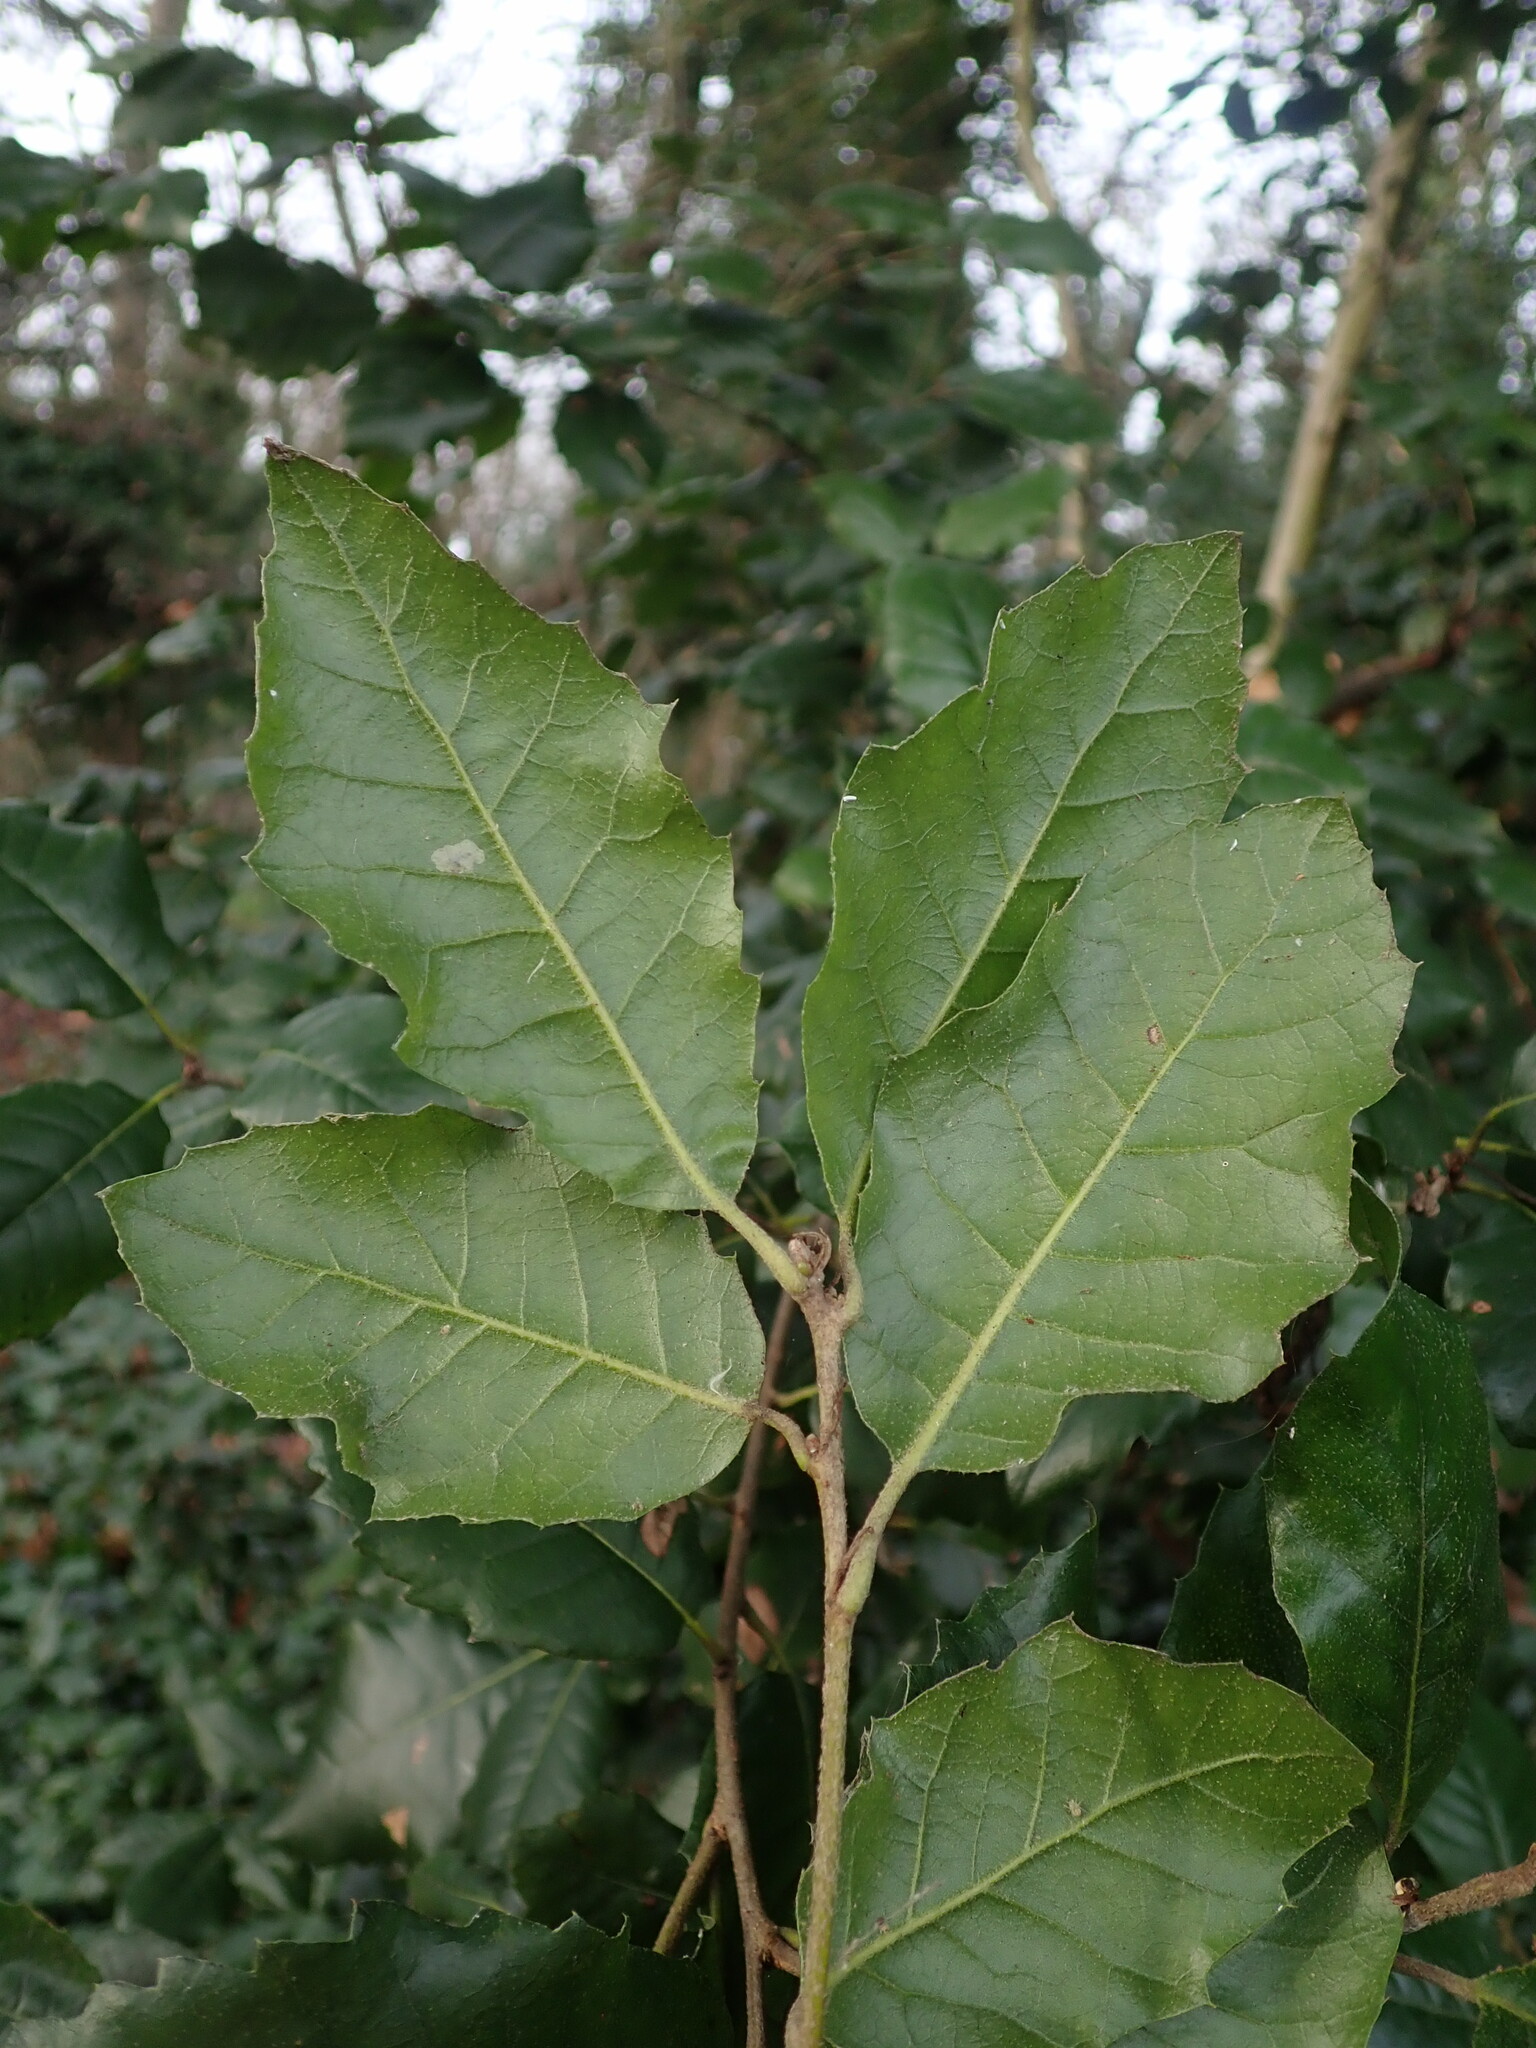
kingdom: Plantae
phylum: Tracheophyta
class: Magnoliopsida
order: Fagales
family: Fagaceae
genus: Quercus
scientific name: Quercus ilex
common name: Evergreen oak
